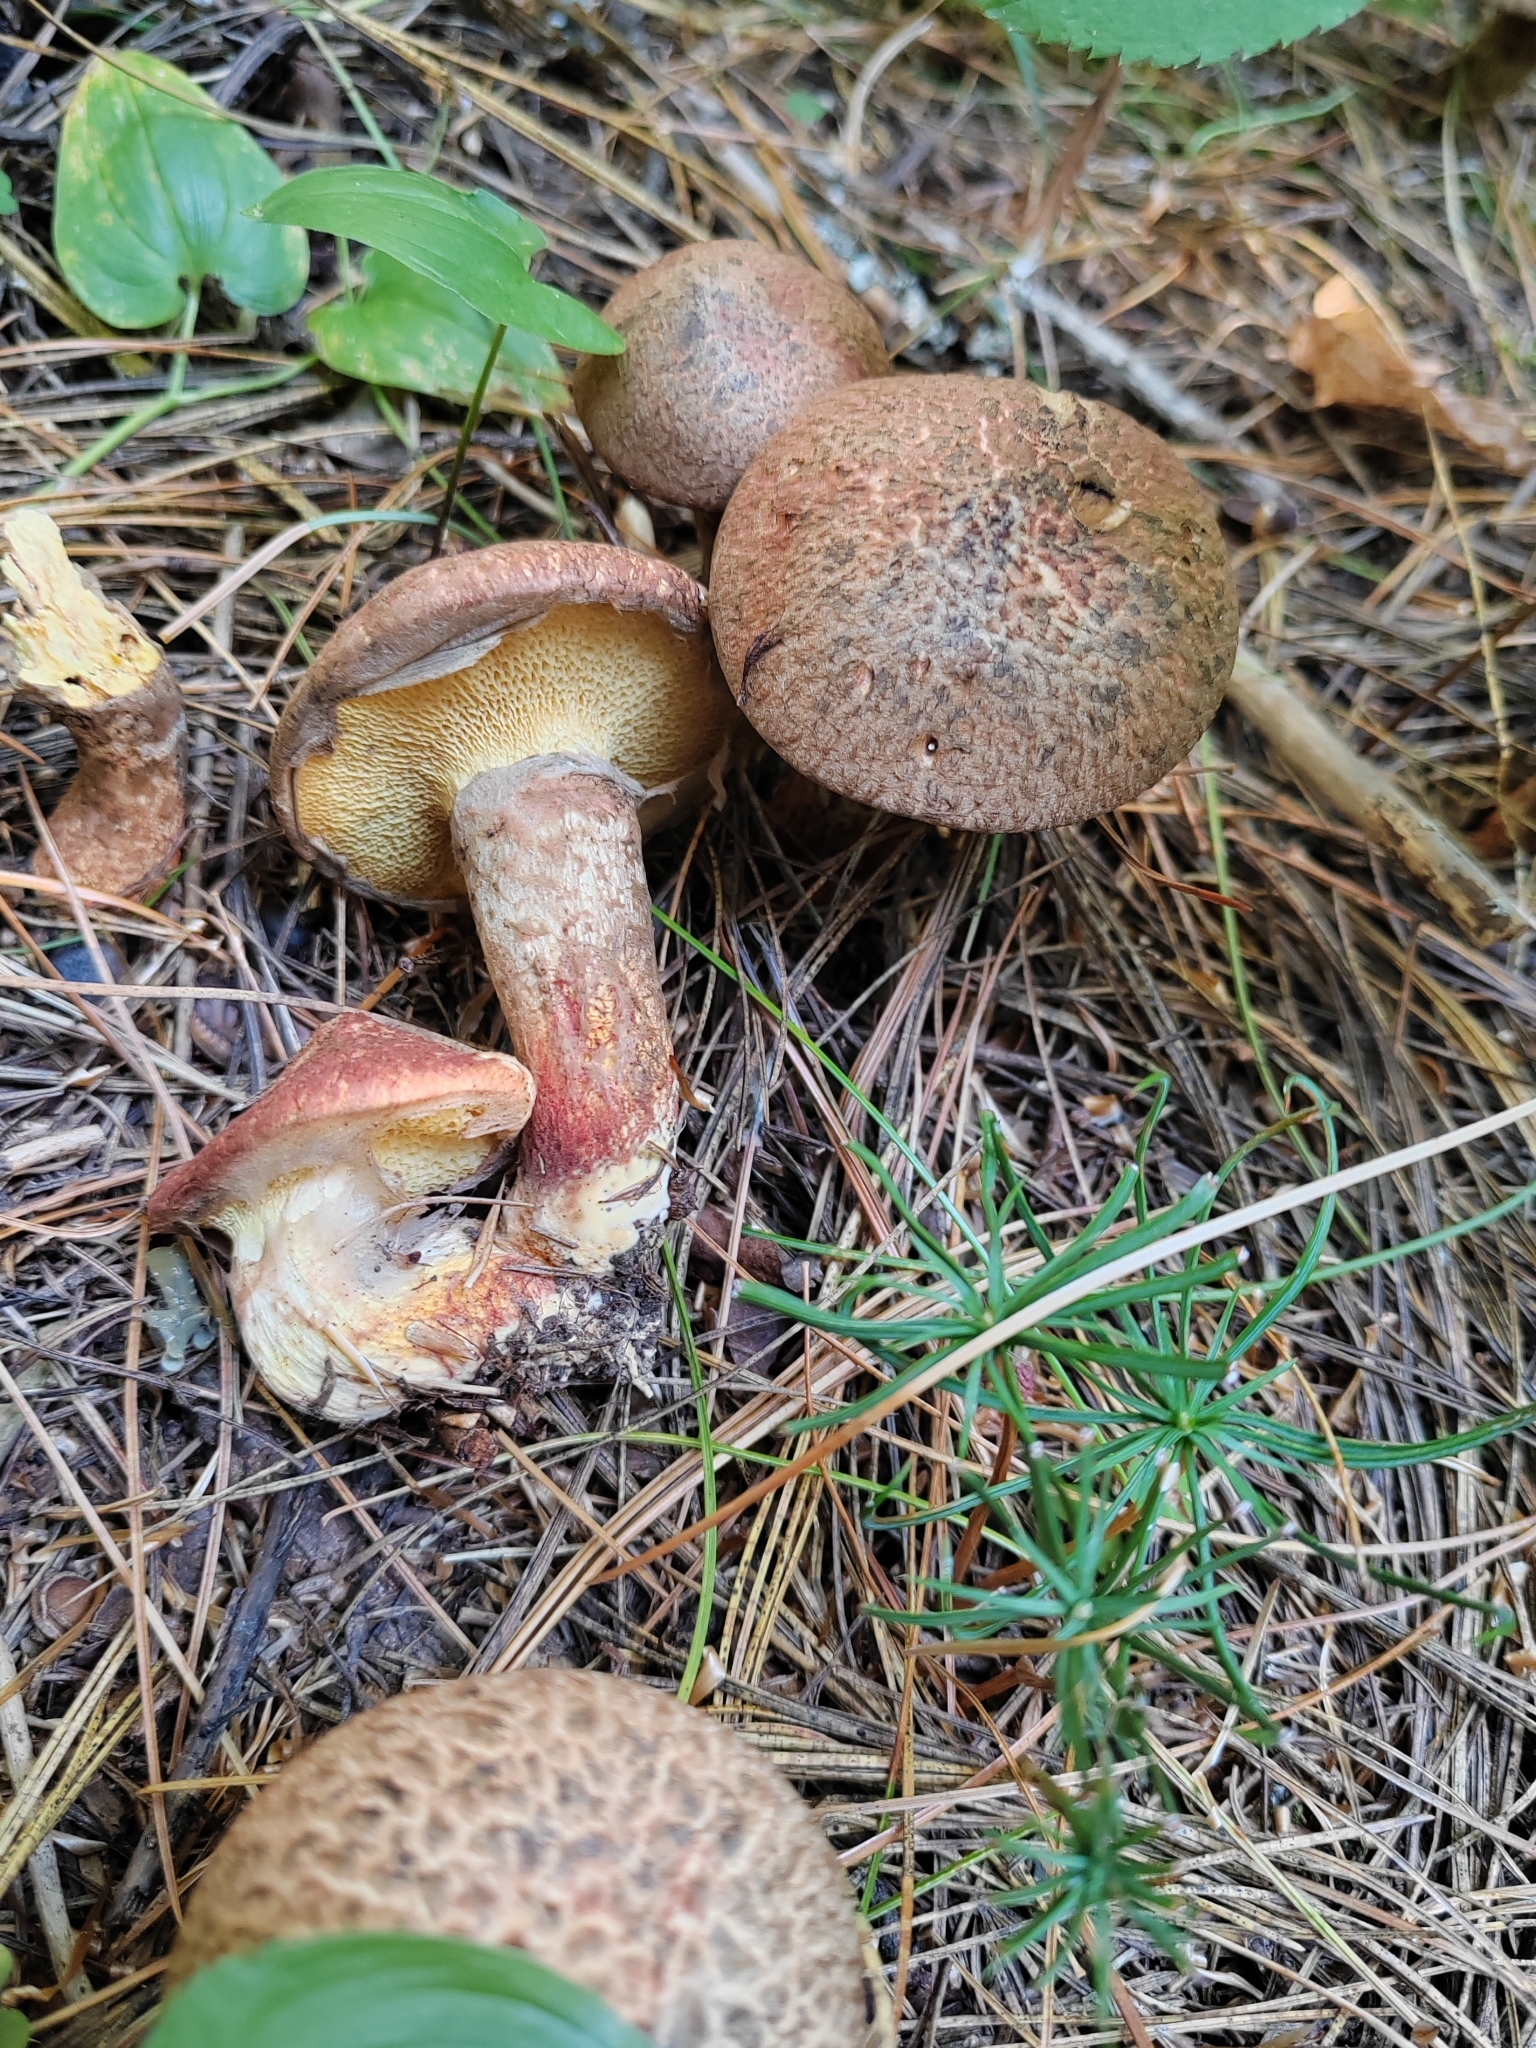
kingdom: Fungi
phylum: Basidiomycota
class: Agaricomycetes
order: Boletales
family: Suillaceae
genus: Suillus
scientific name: Suillus spraguei
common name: Painted suillus
